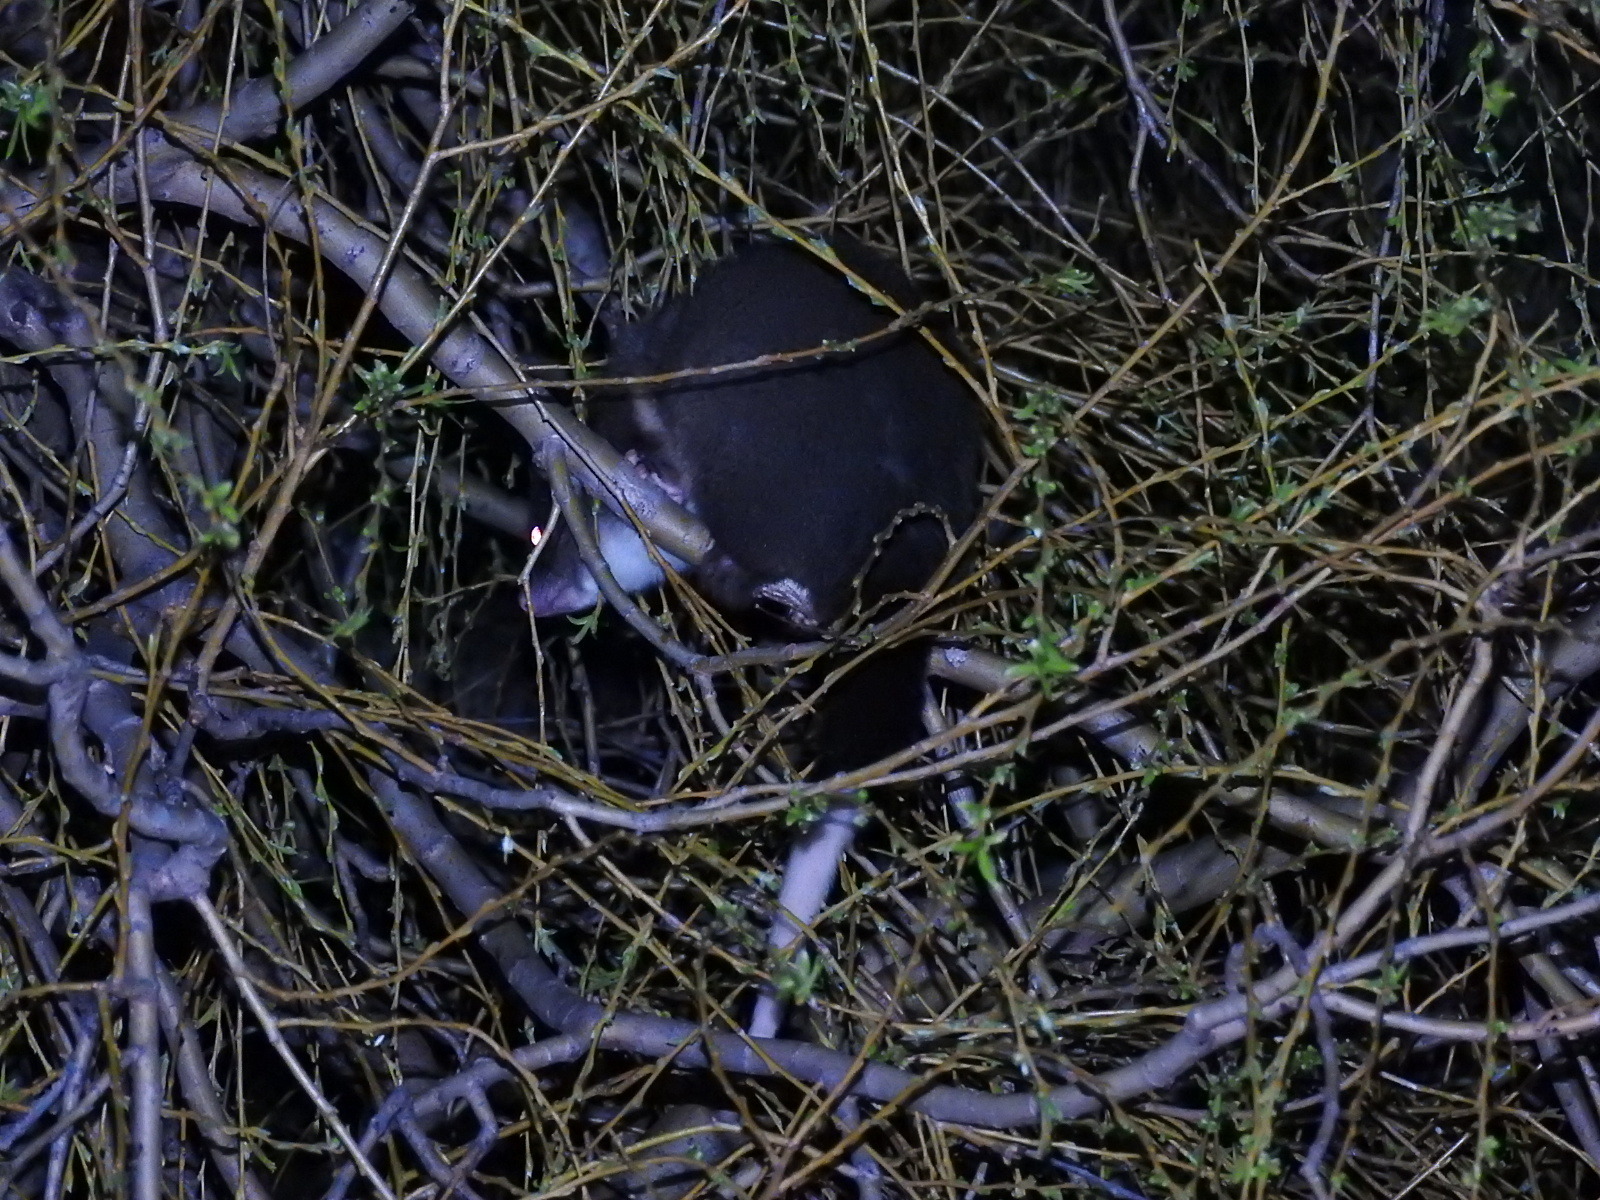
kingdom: Animalia
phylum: Chordata
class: Mammalia
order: Diprotodontia
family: Pseudocheiridae
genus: Pseudocheirus
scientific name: Pseudocheirus peregrinus
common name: Common ringtail possum
